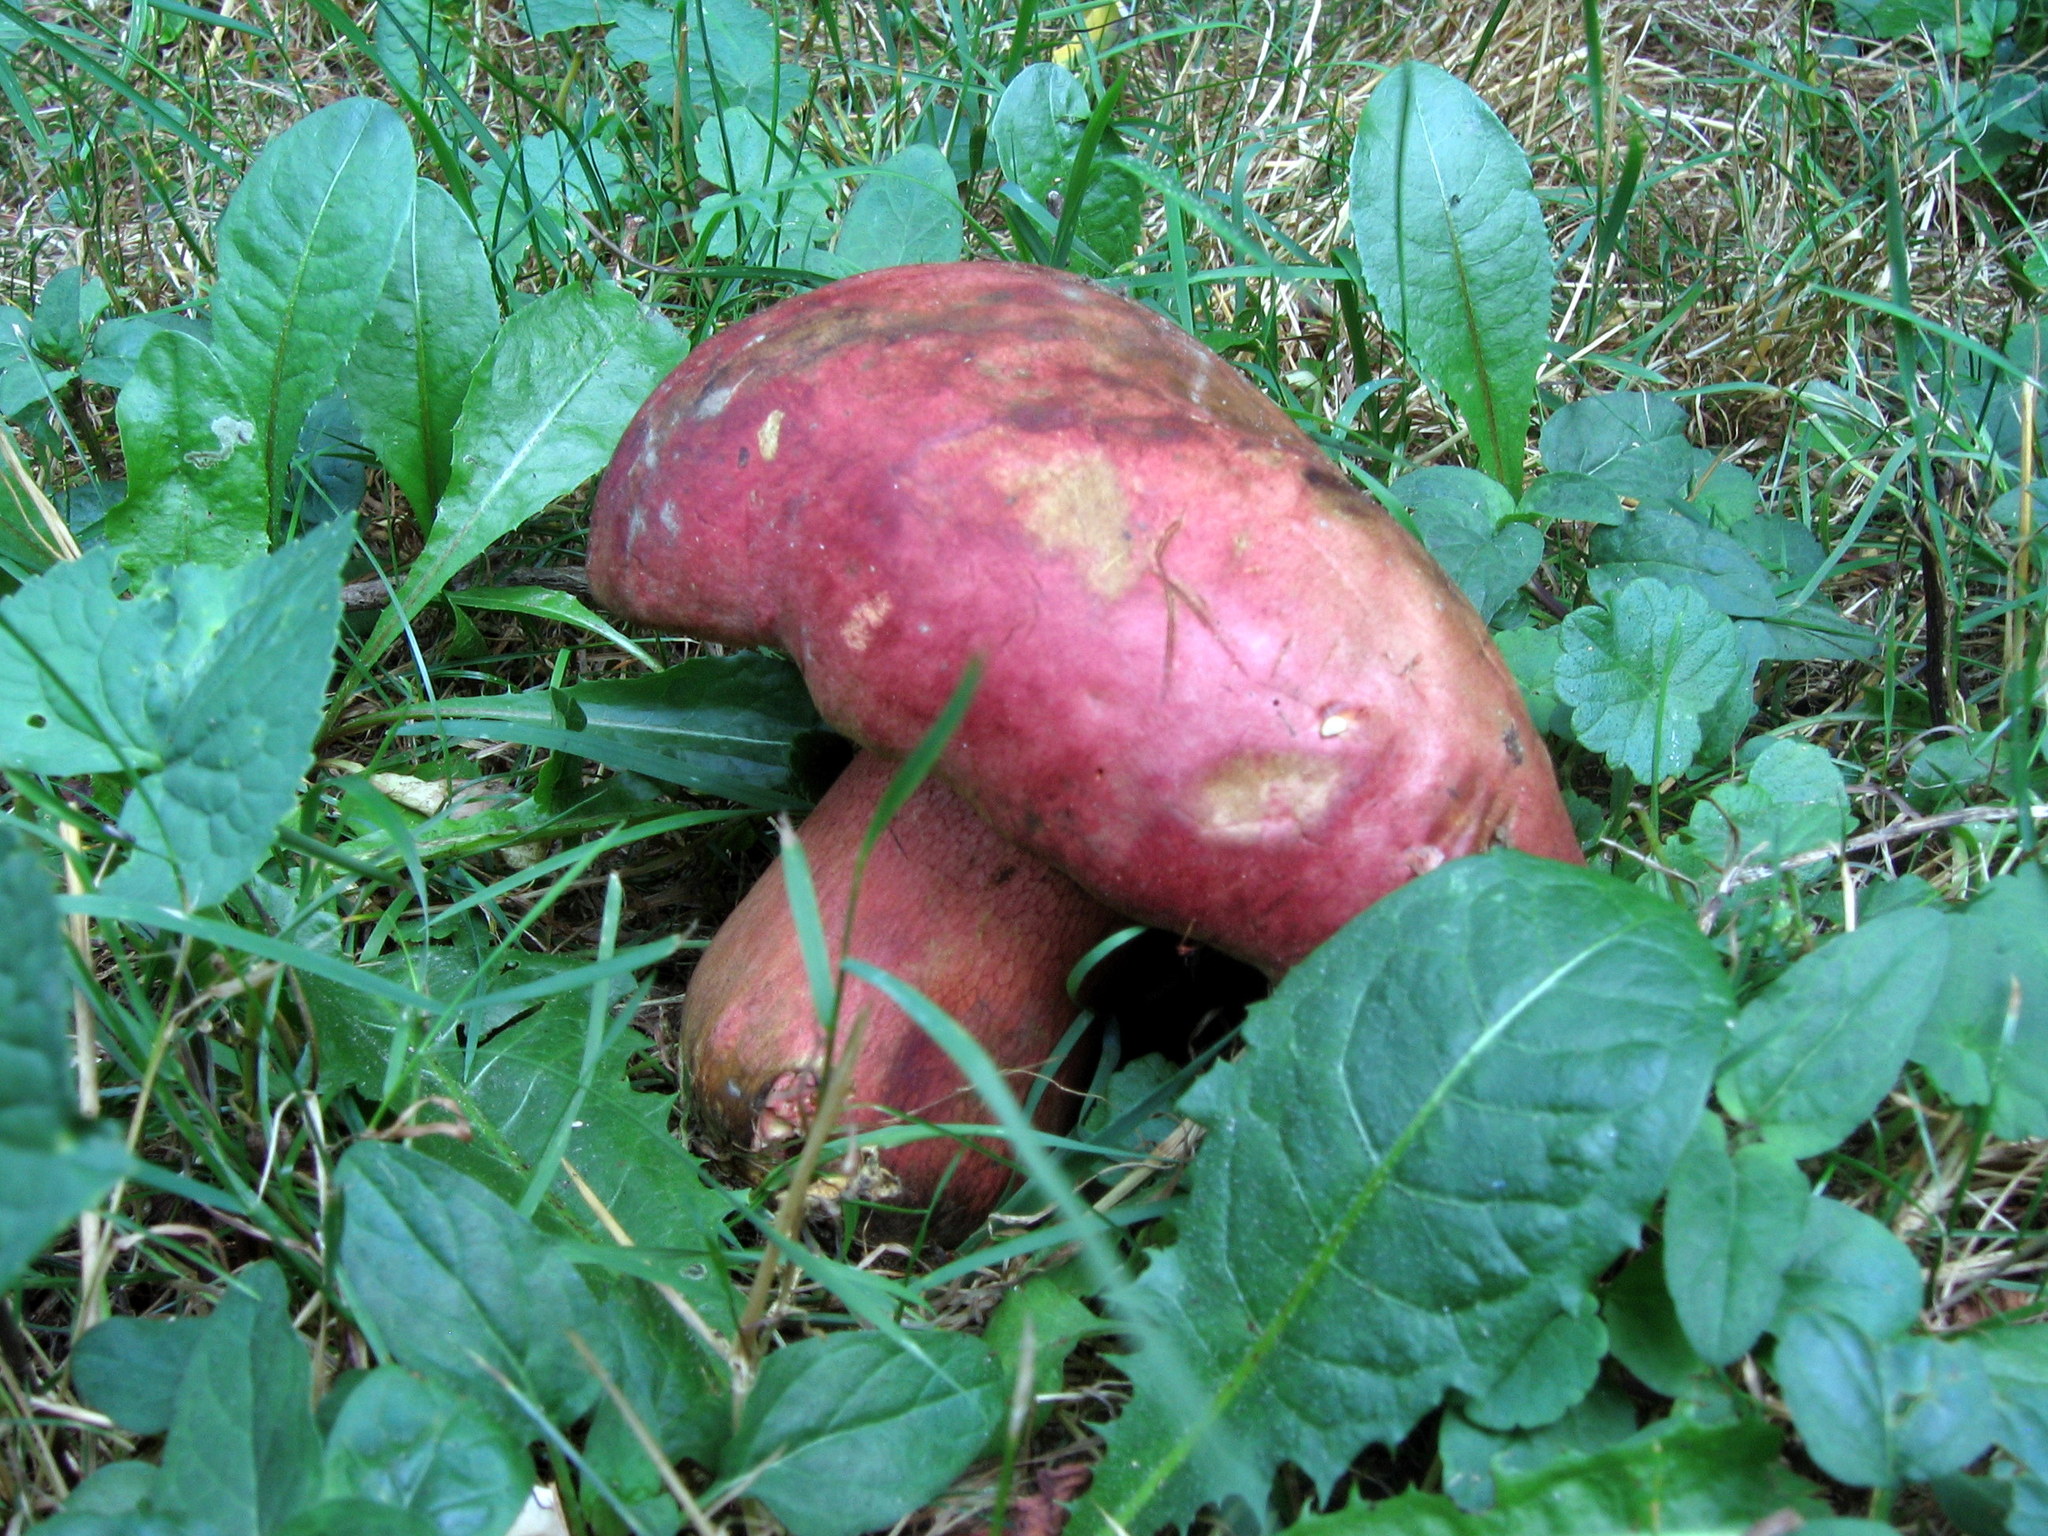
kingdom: Fungi
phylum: Basidiomycota
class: Agaricomycetes
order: Boletales
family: Boletaceae
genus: Rubroboletus
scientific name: Rubroboletus rhodosanguineus
